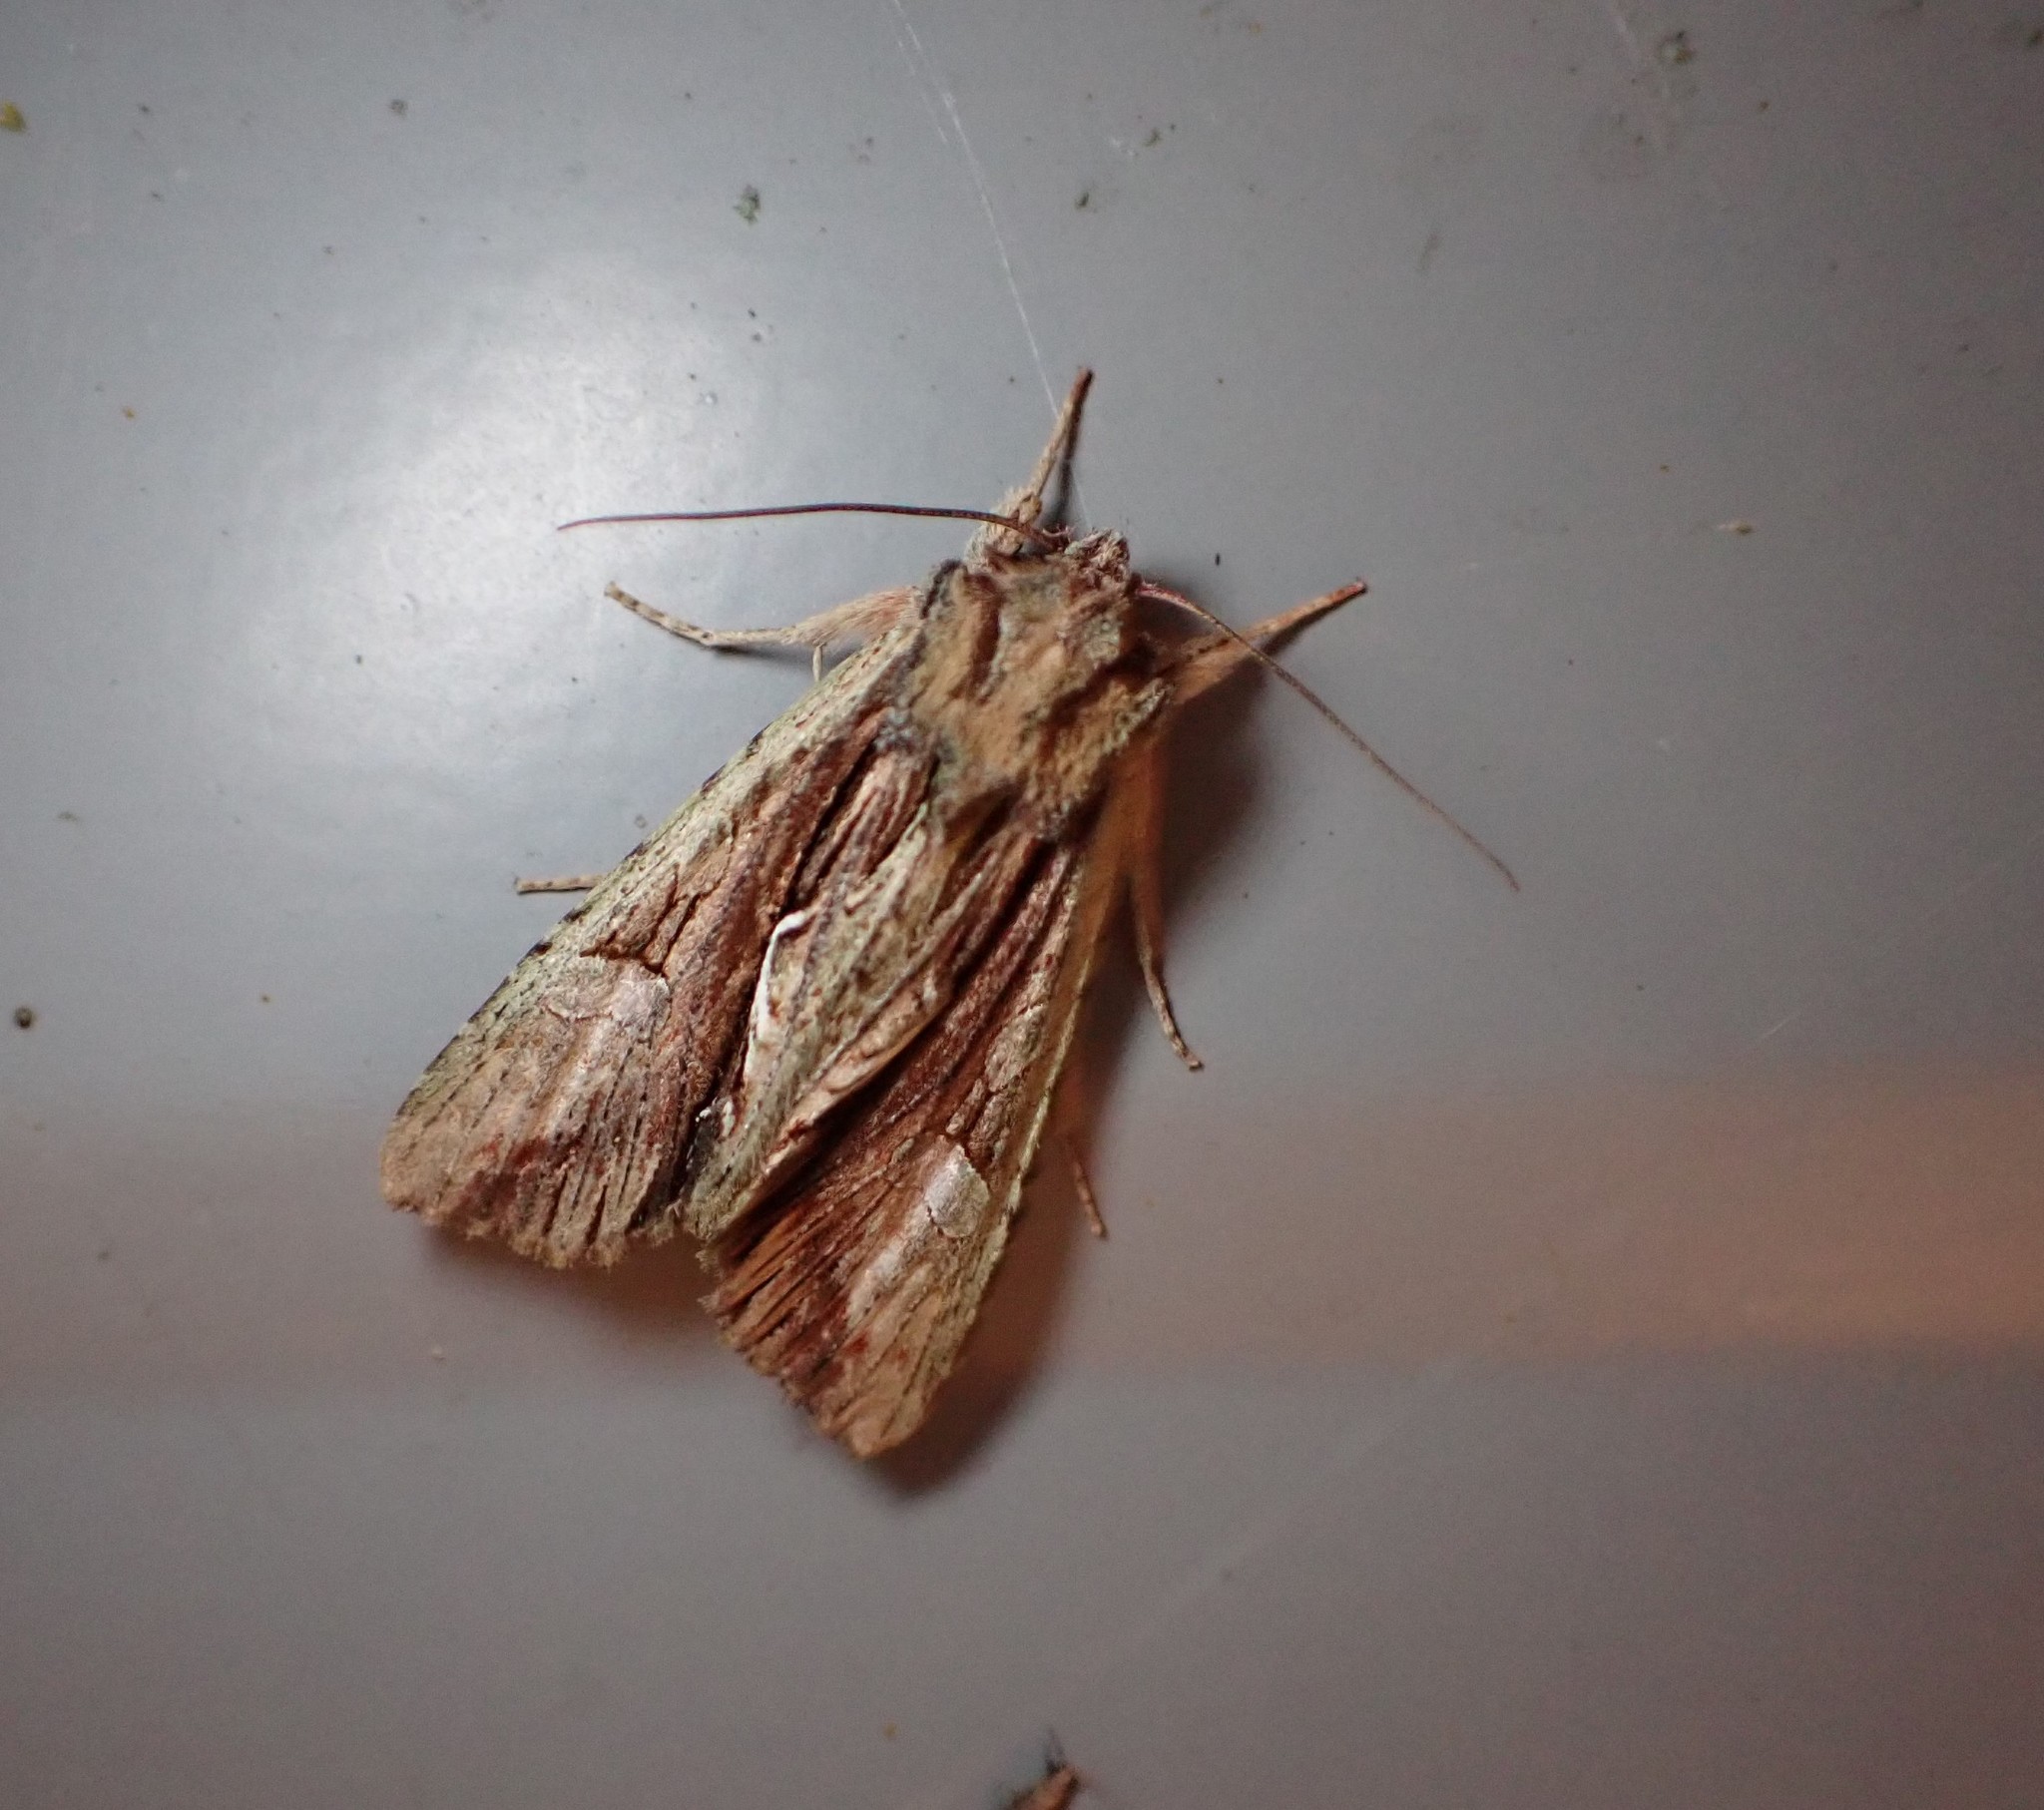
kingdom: Animalia
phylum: Arthropoda
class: Insecta
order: Lepidoptera
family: Noctuidae
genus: Meterana
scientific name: Meterana decorata
